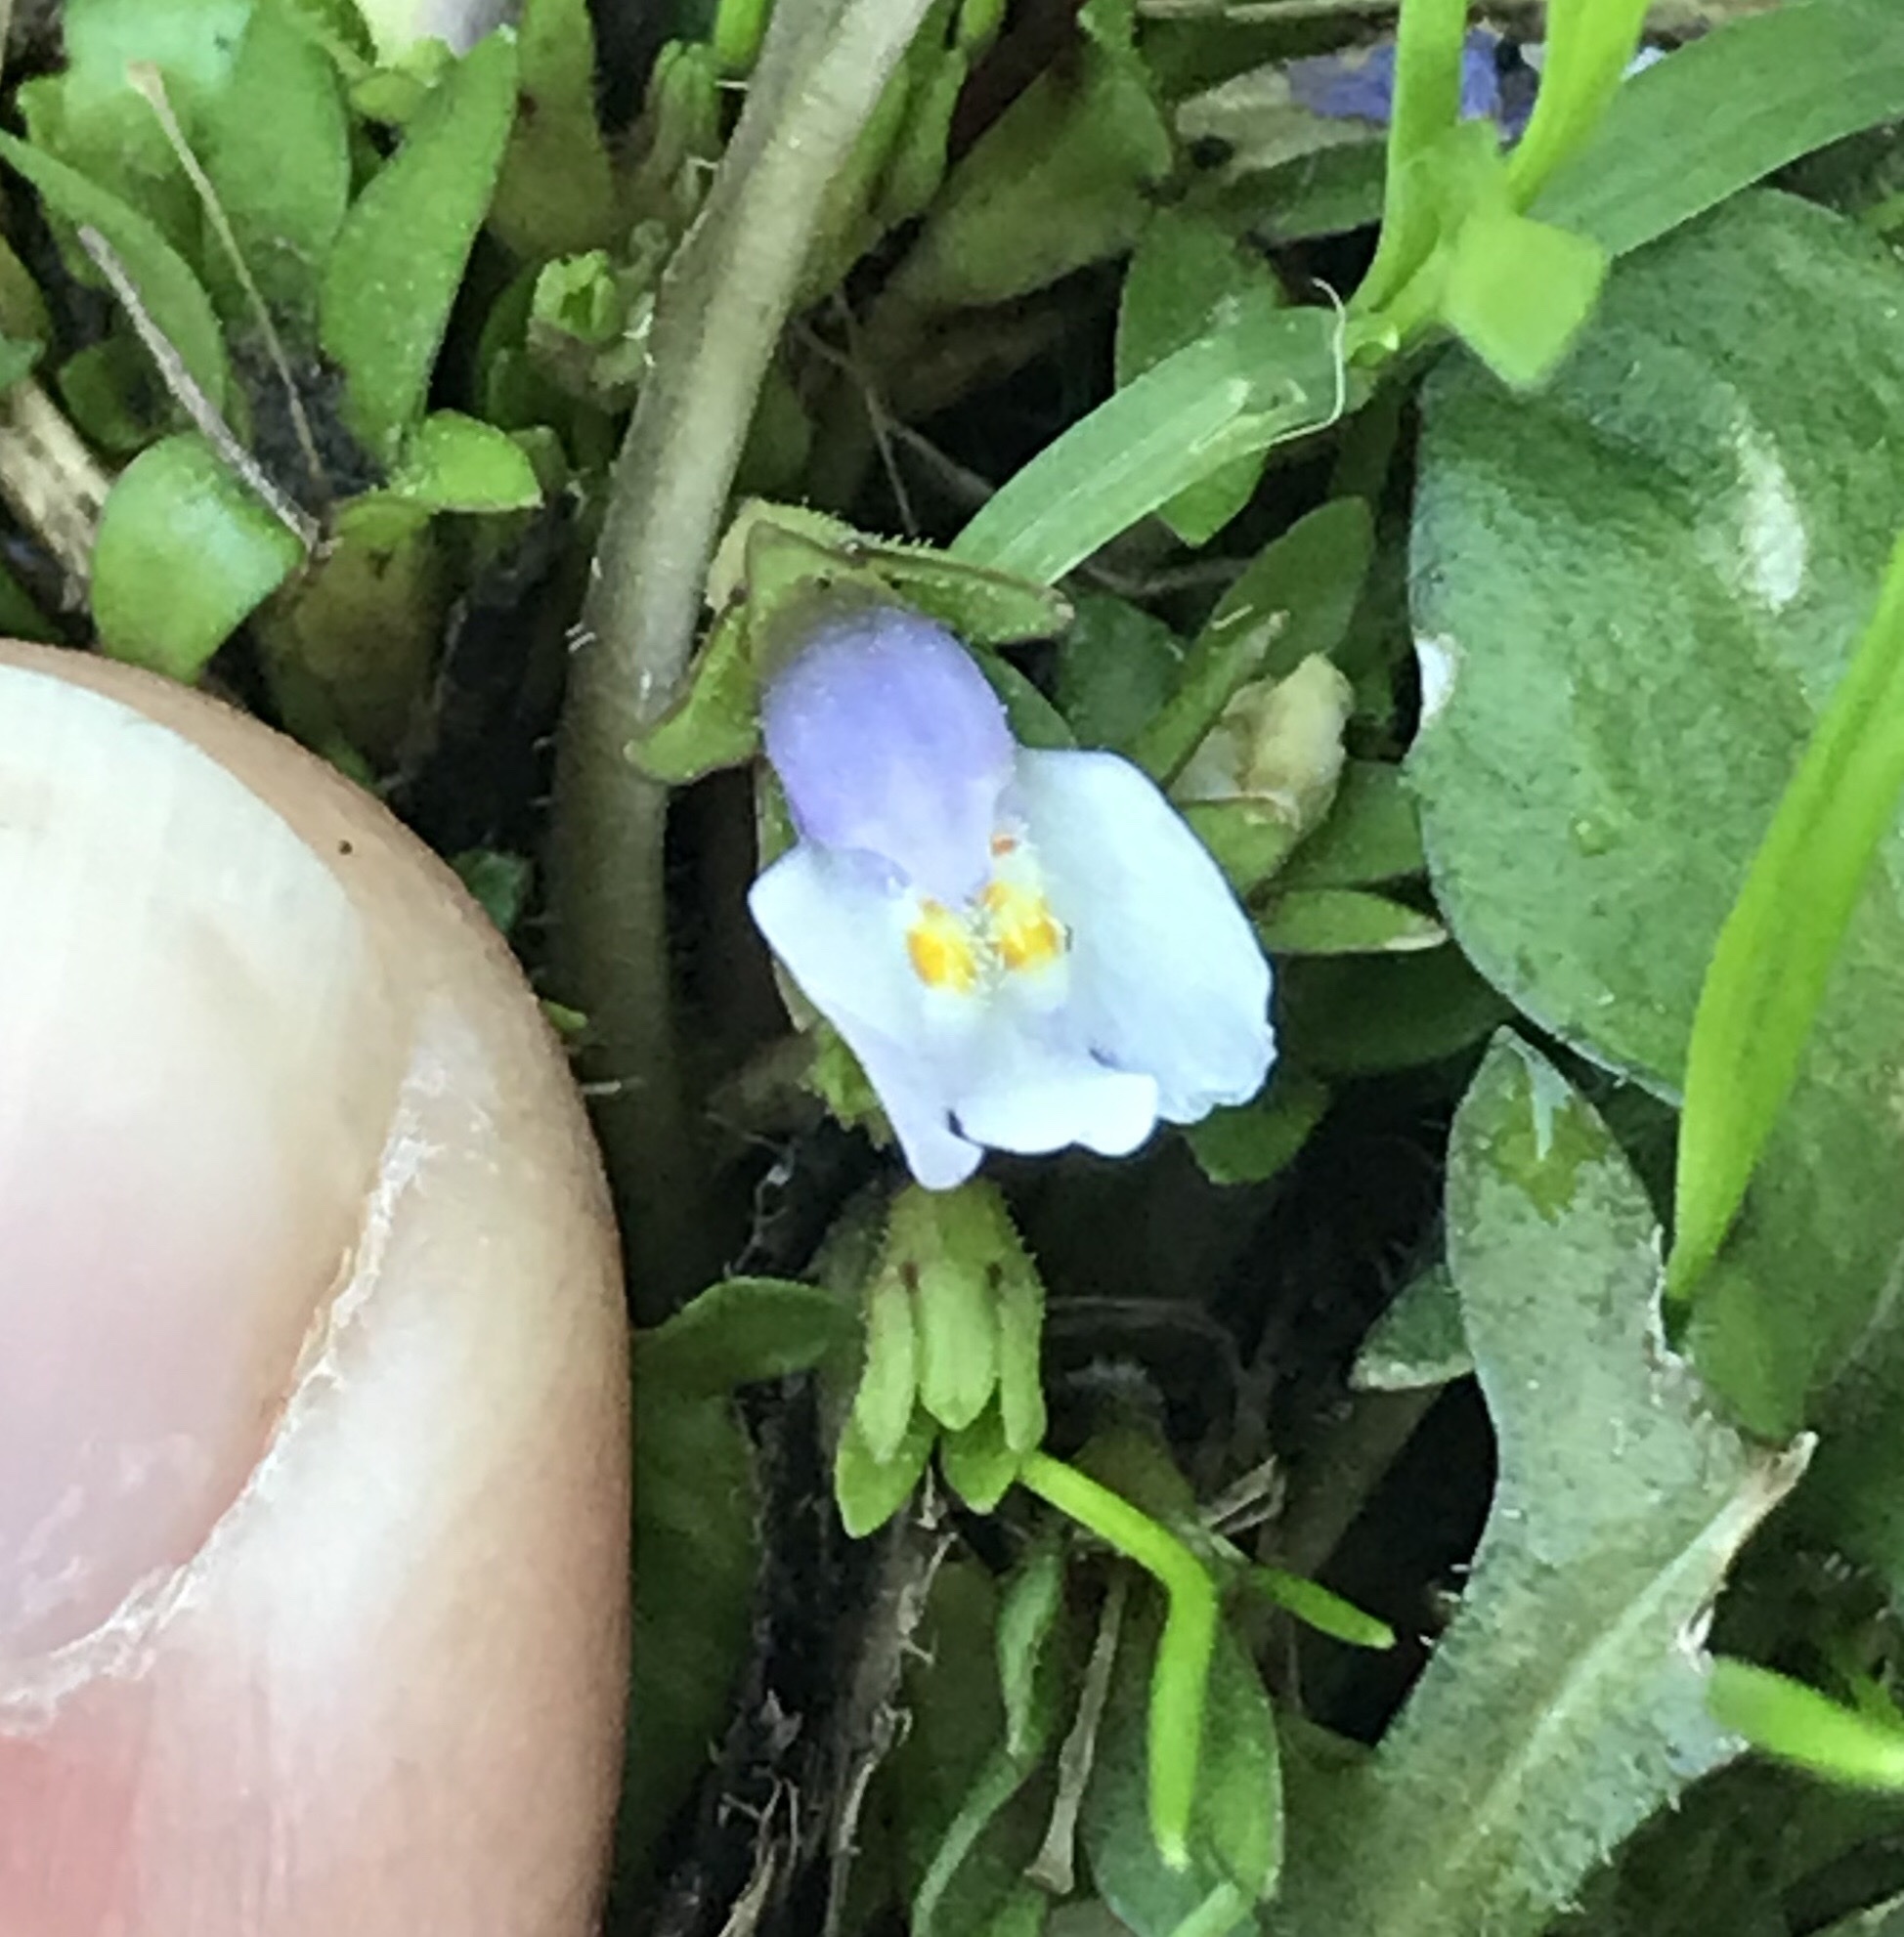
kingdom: Plantae
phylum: Tracheophyta
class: Magnoliopsida
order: Lamiales
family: Mazaceae
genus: Mazus
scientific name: Mazus pumilus
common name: Japanese mazus
